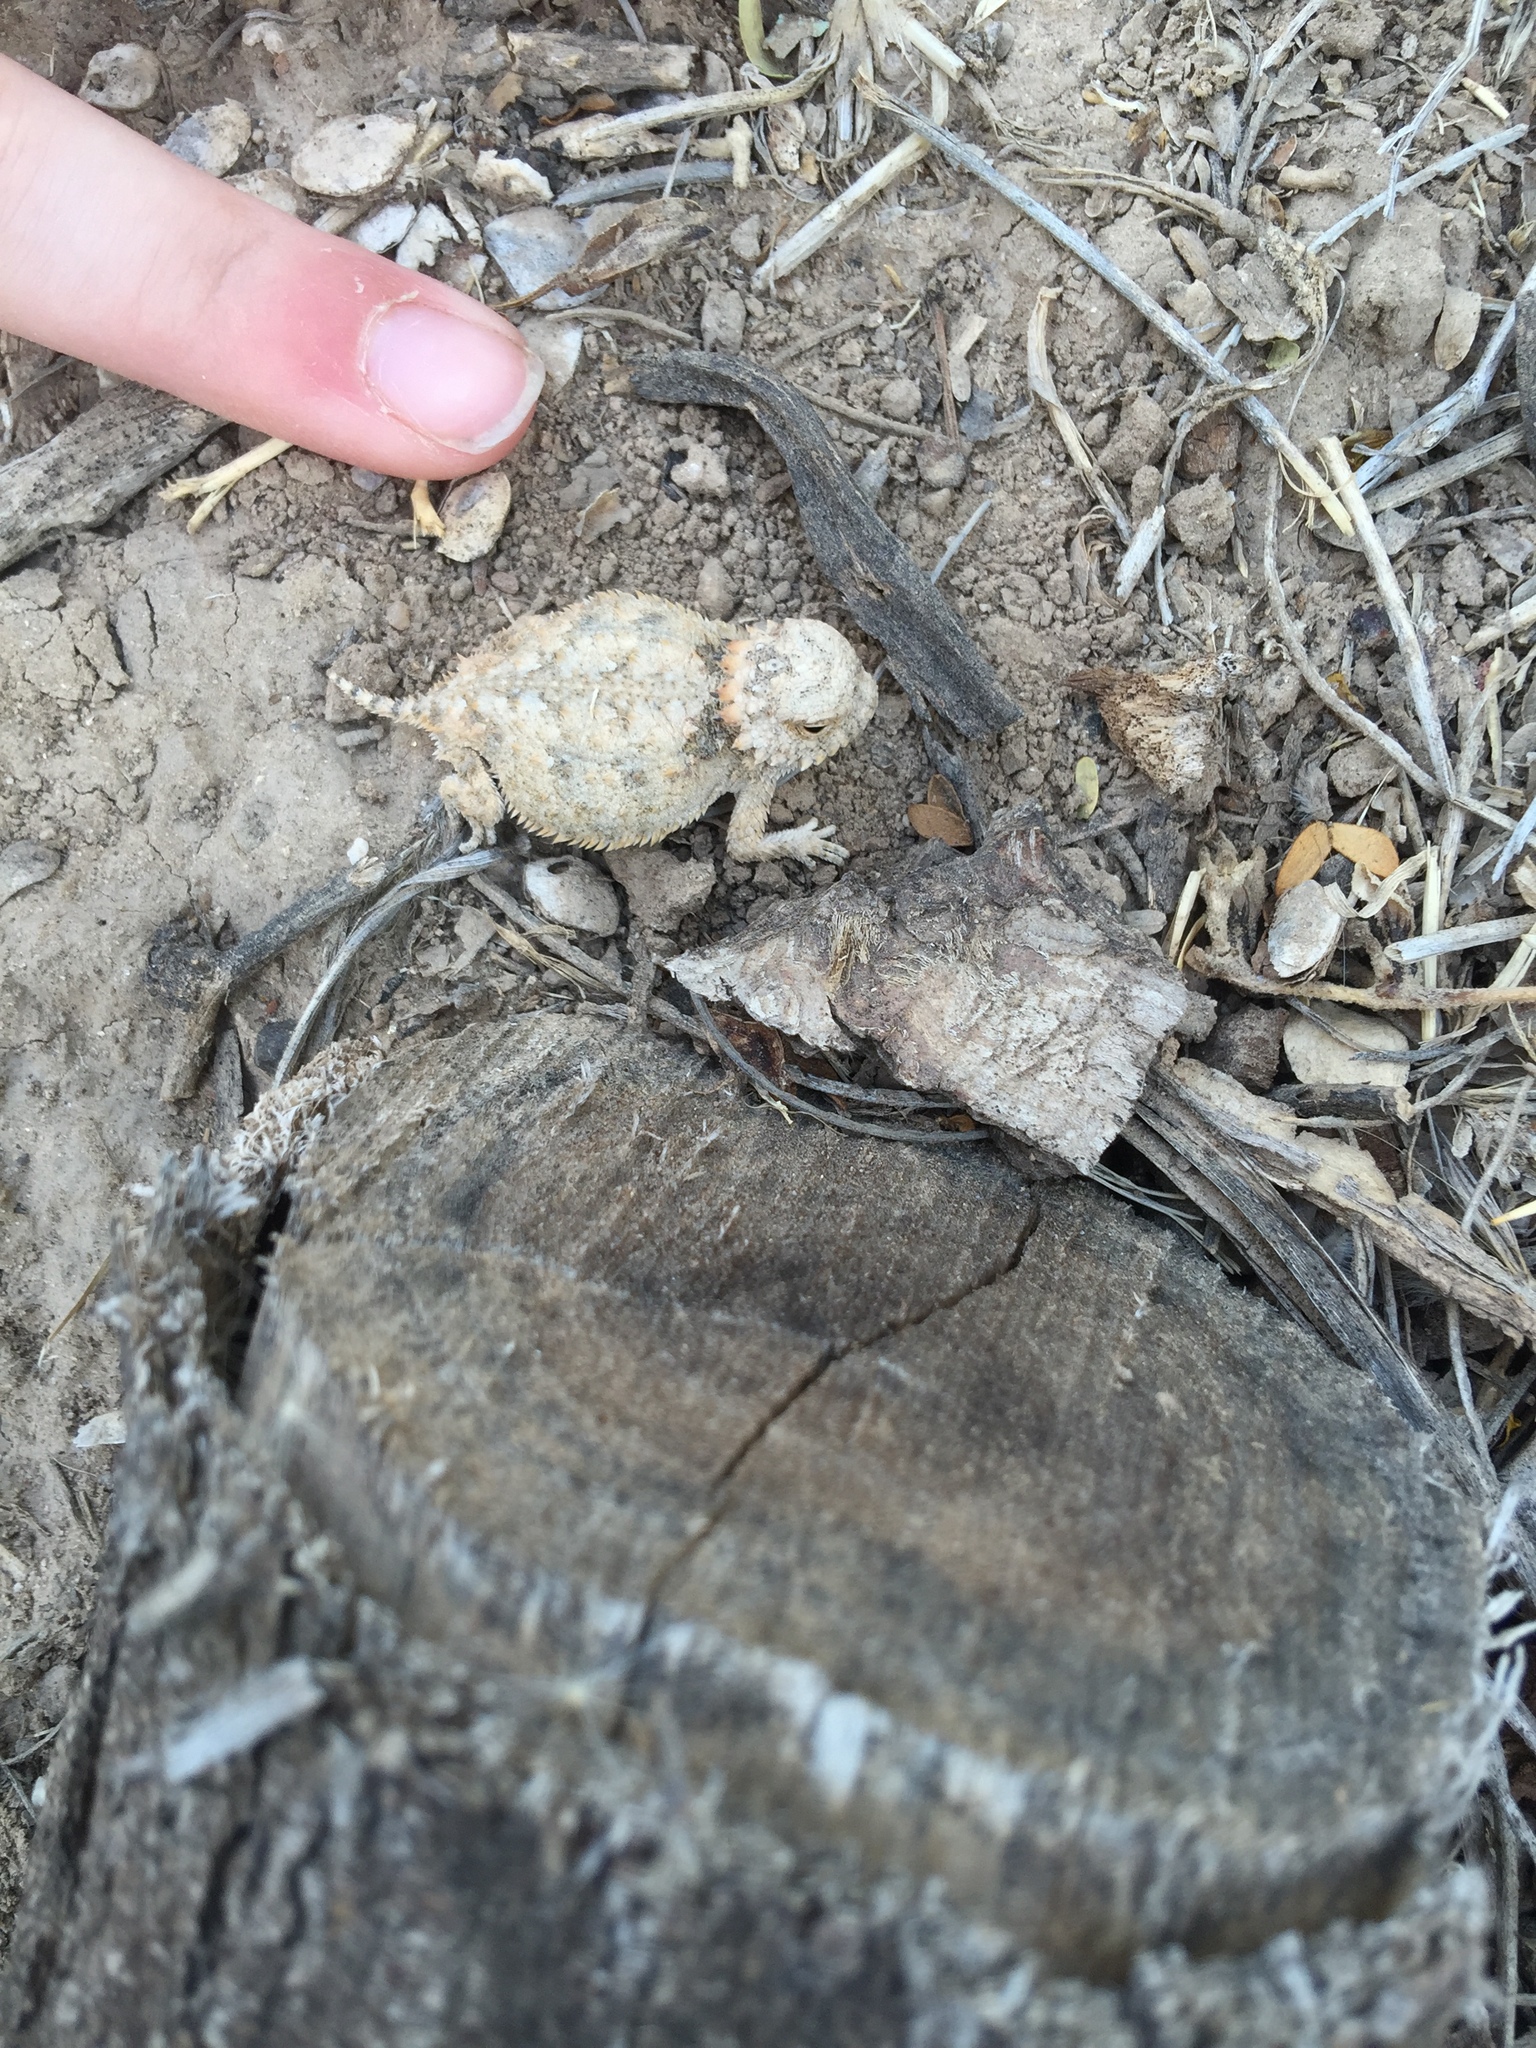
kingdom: Animalia
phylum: Chordata
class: Squamata
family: Phrynosomatidae
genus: Phrynosoma
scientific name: Phrynosoma solare
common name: Regal horned lizard
